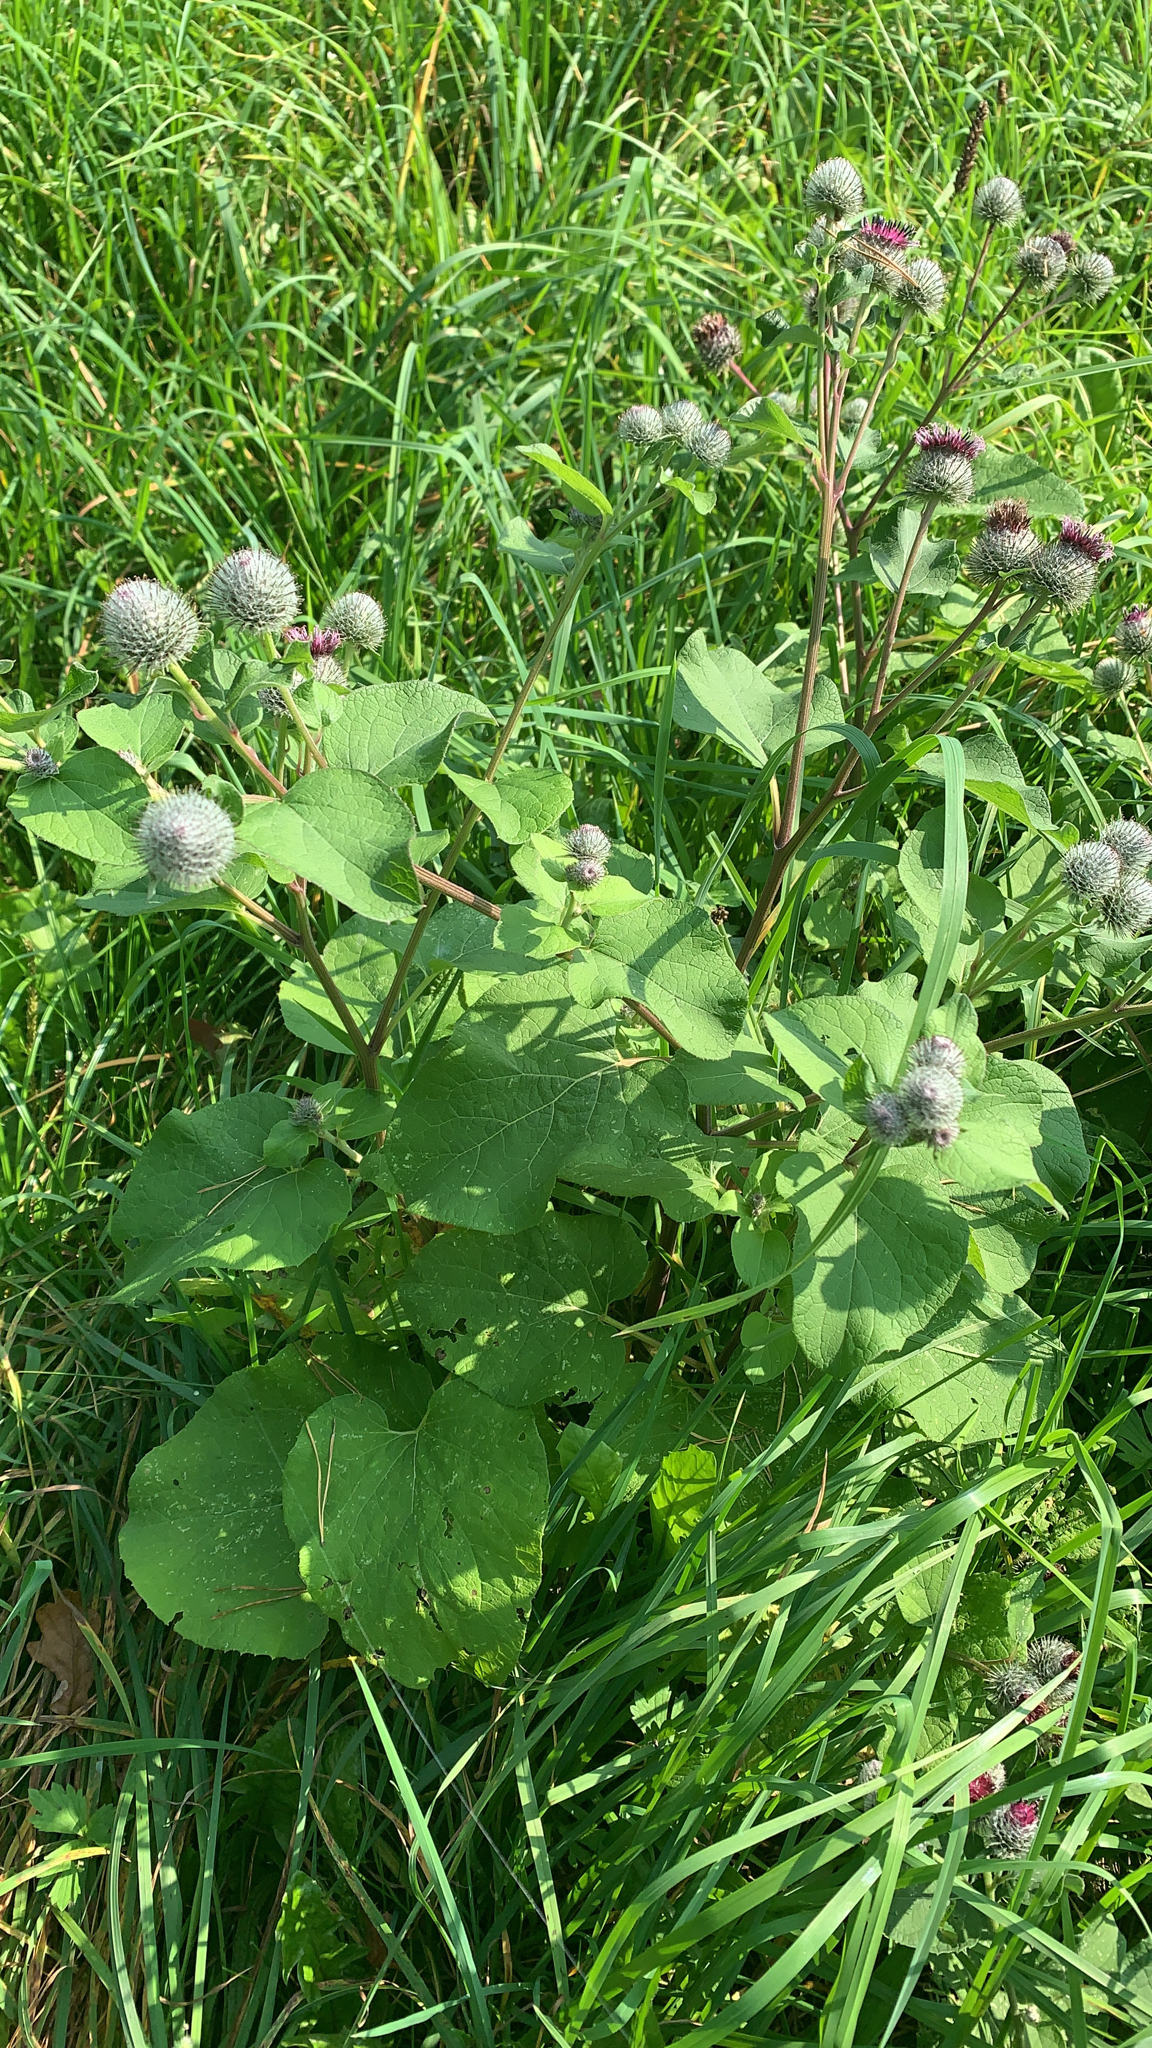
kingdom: Plantae
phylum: Tracheophyta
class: Magnoliopsida
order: Asterales
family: Asteraceae
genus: Arctium
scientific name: Arctium tomentosum
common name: Woolly burdock
